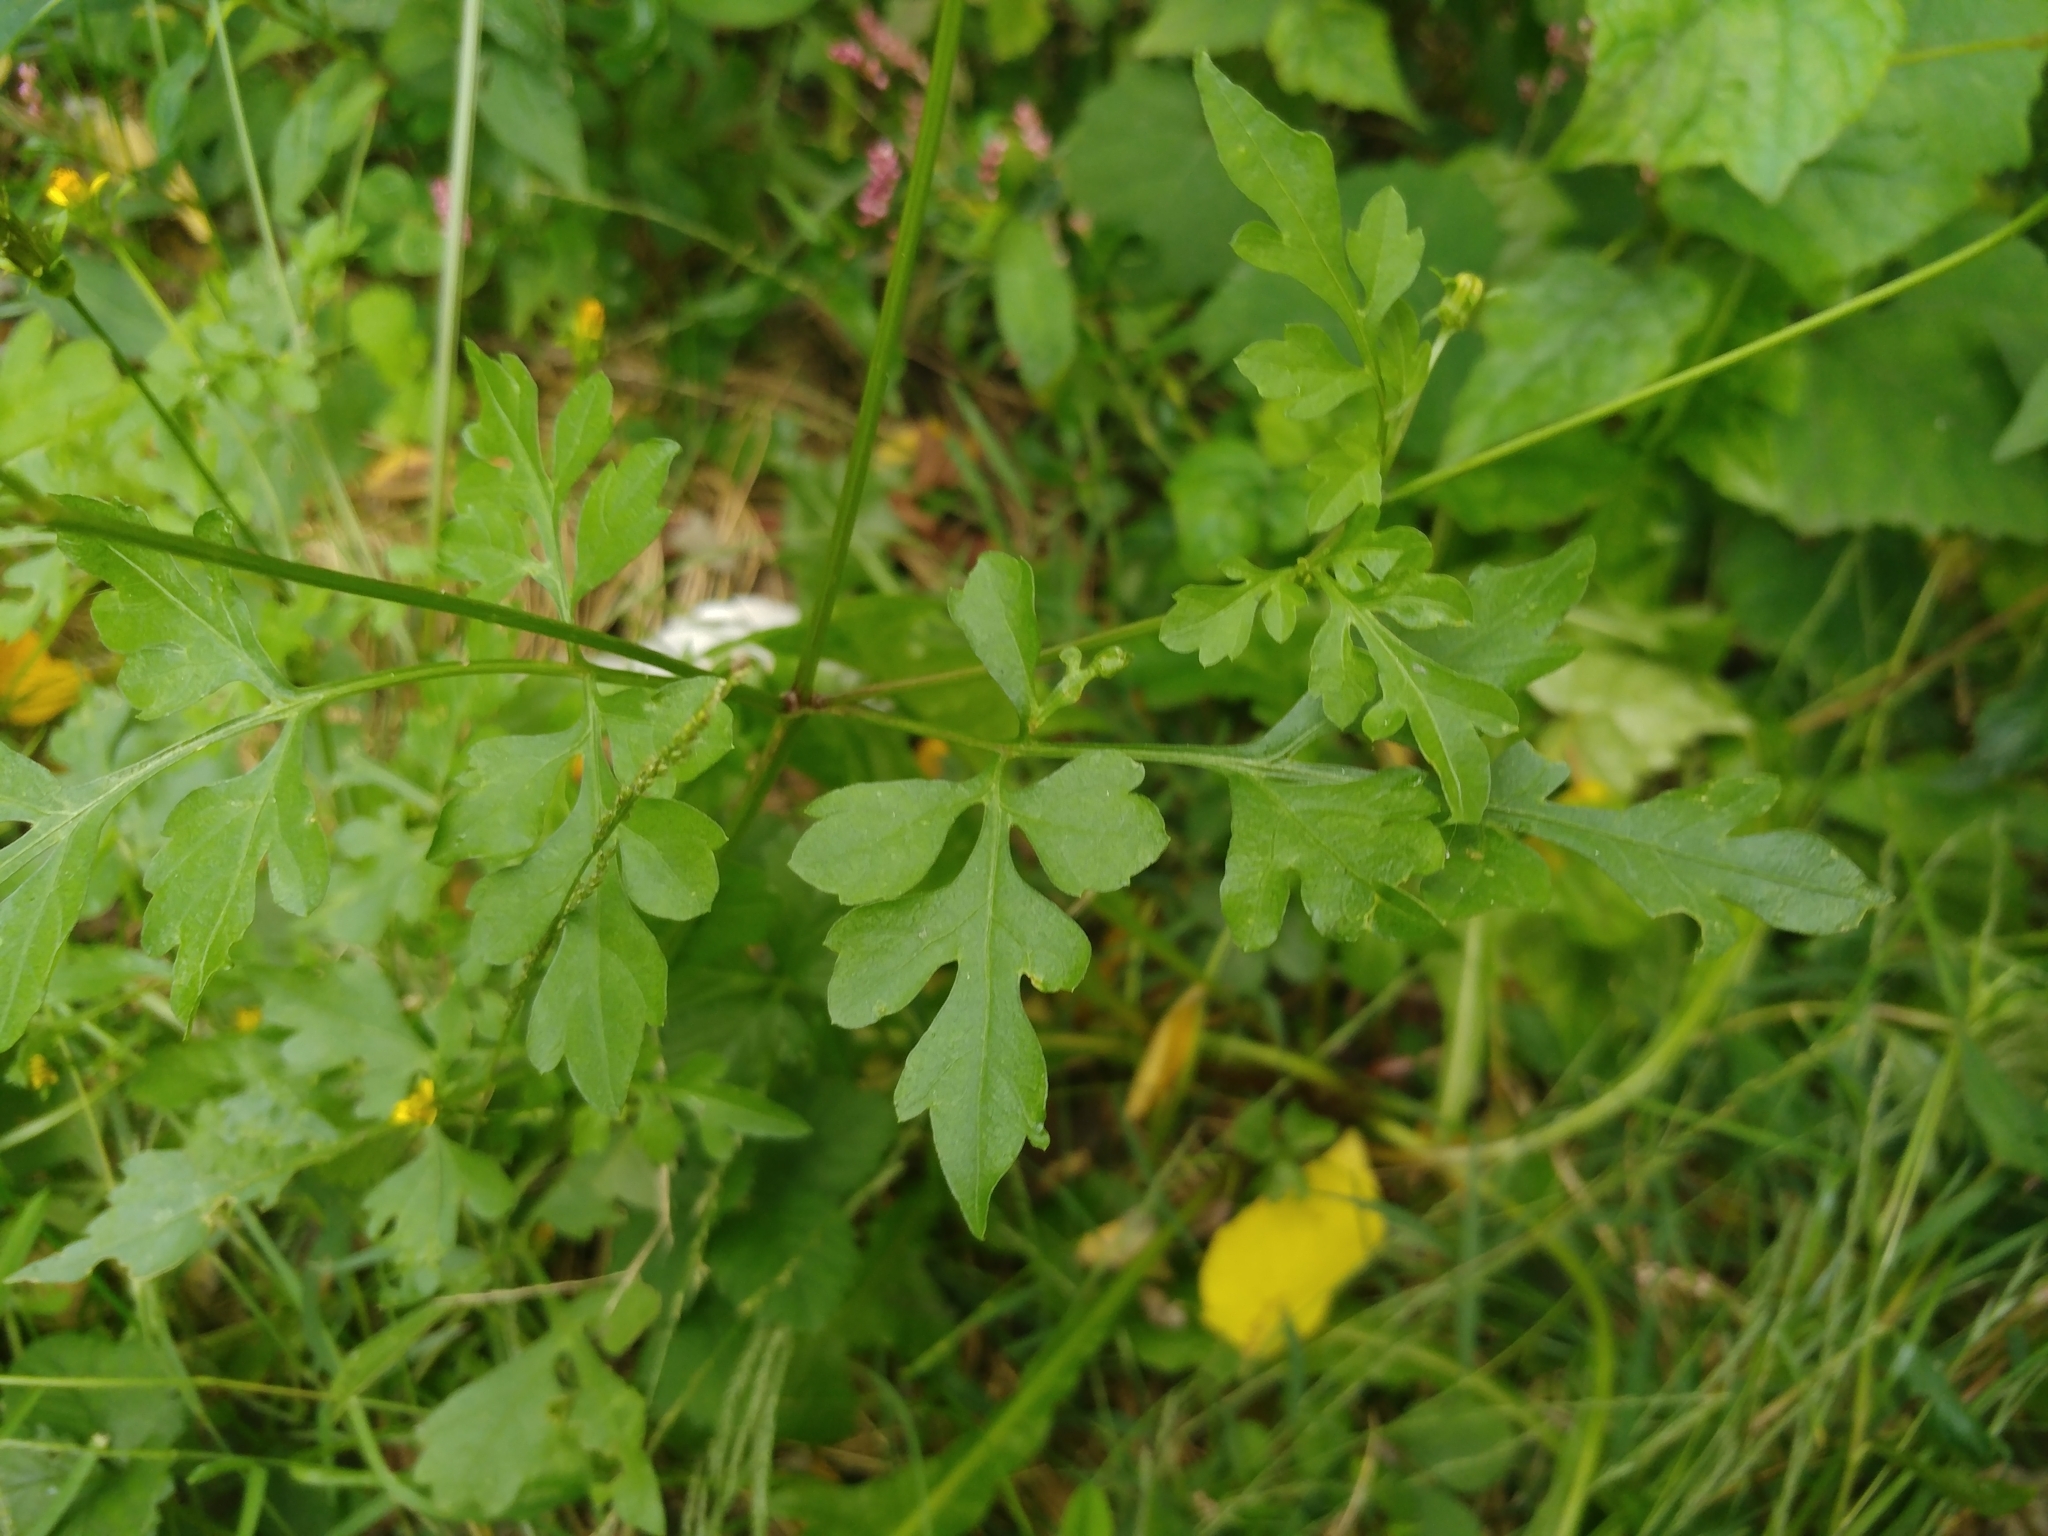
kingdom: Plantae
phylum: Tracheophyta
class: Magnoliopsida
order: Asterales
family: Asteraceae
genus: Bidens
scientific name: Bidens bipinnata
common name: Spanish-needles
